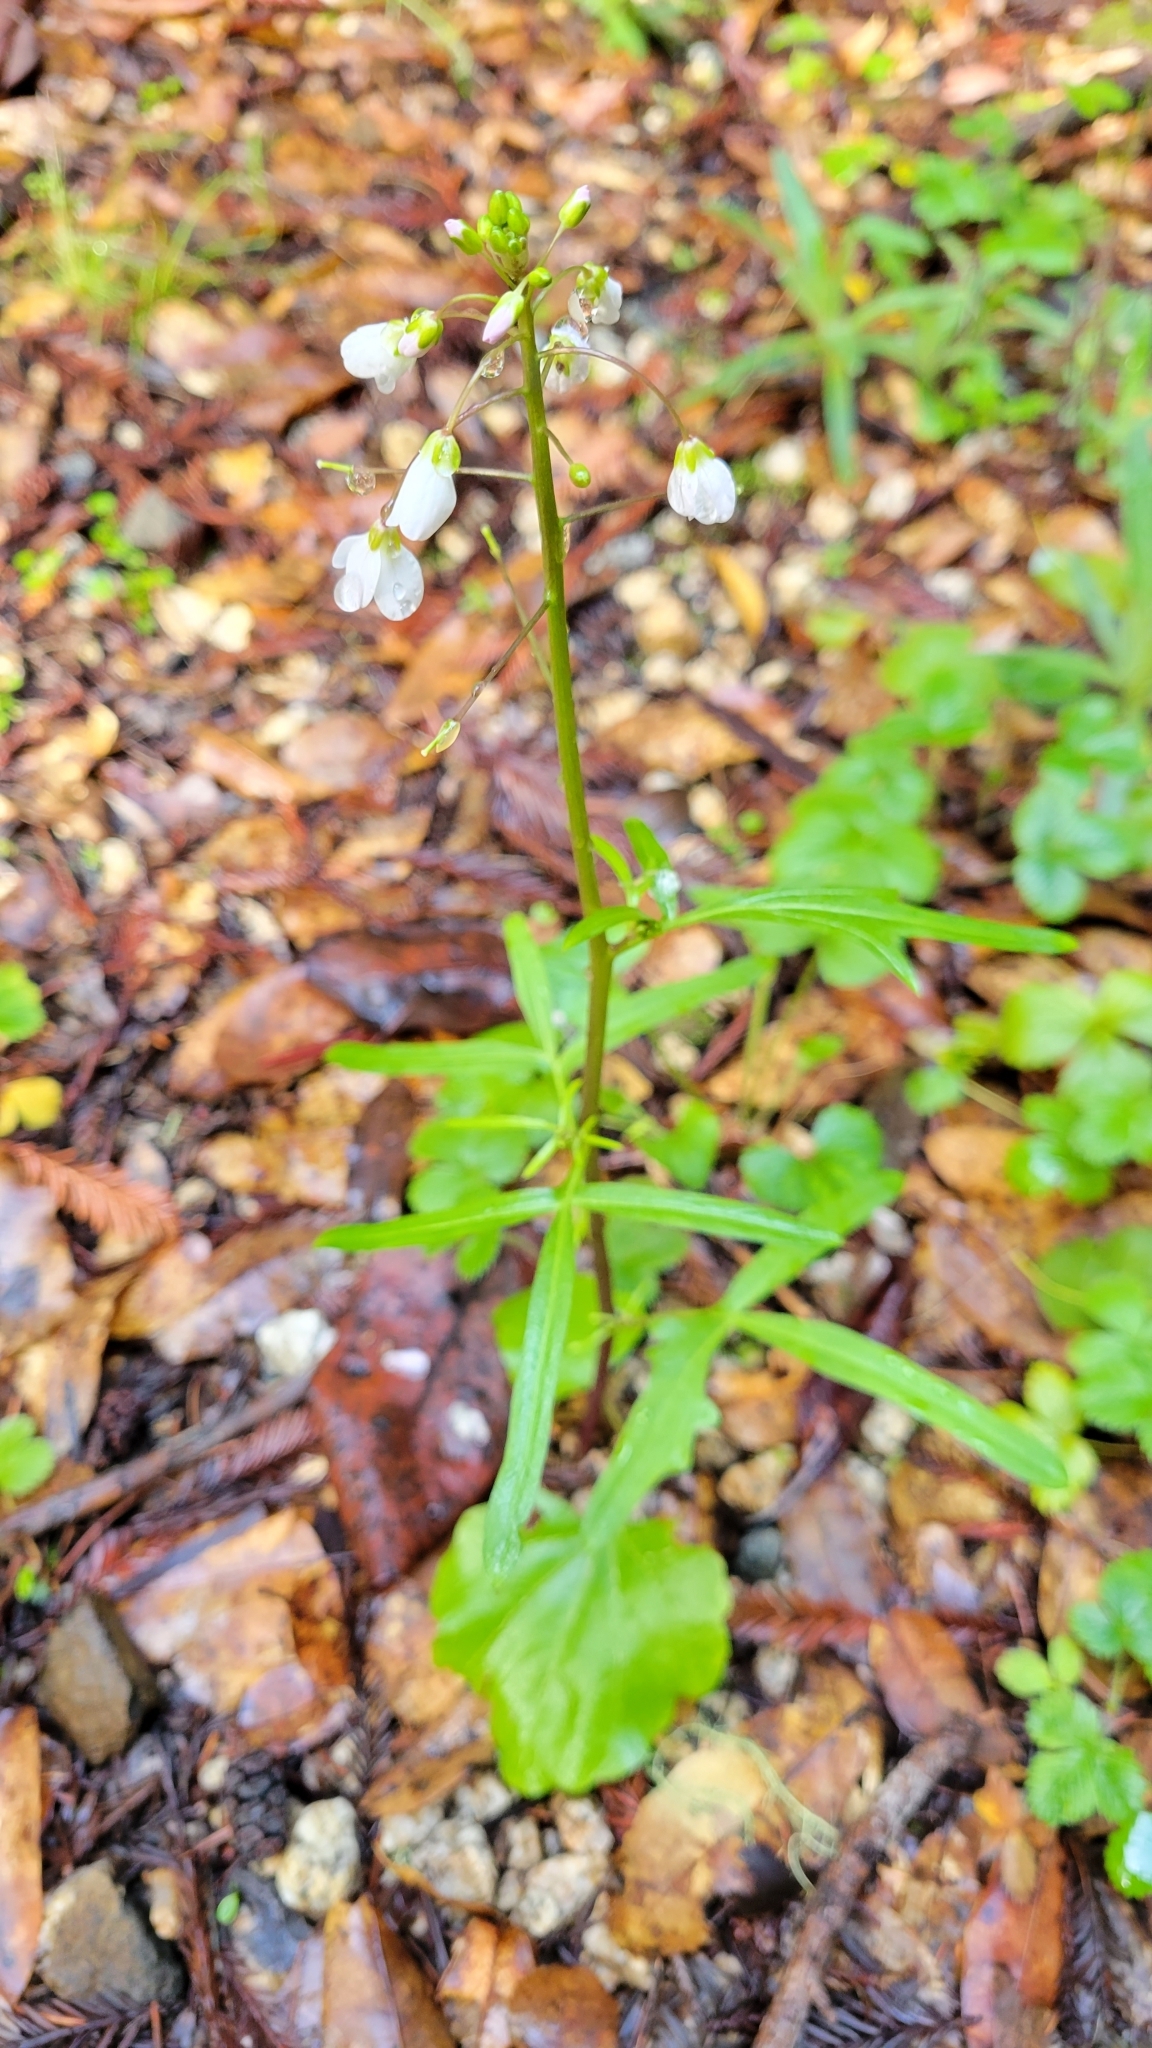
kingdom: Plantae
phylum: Tracheophyta
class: Magnoliopsida
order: Brassicales
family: Brassicaceae
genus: Cardamine
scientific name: Cardamine californica
